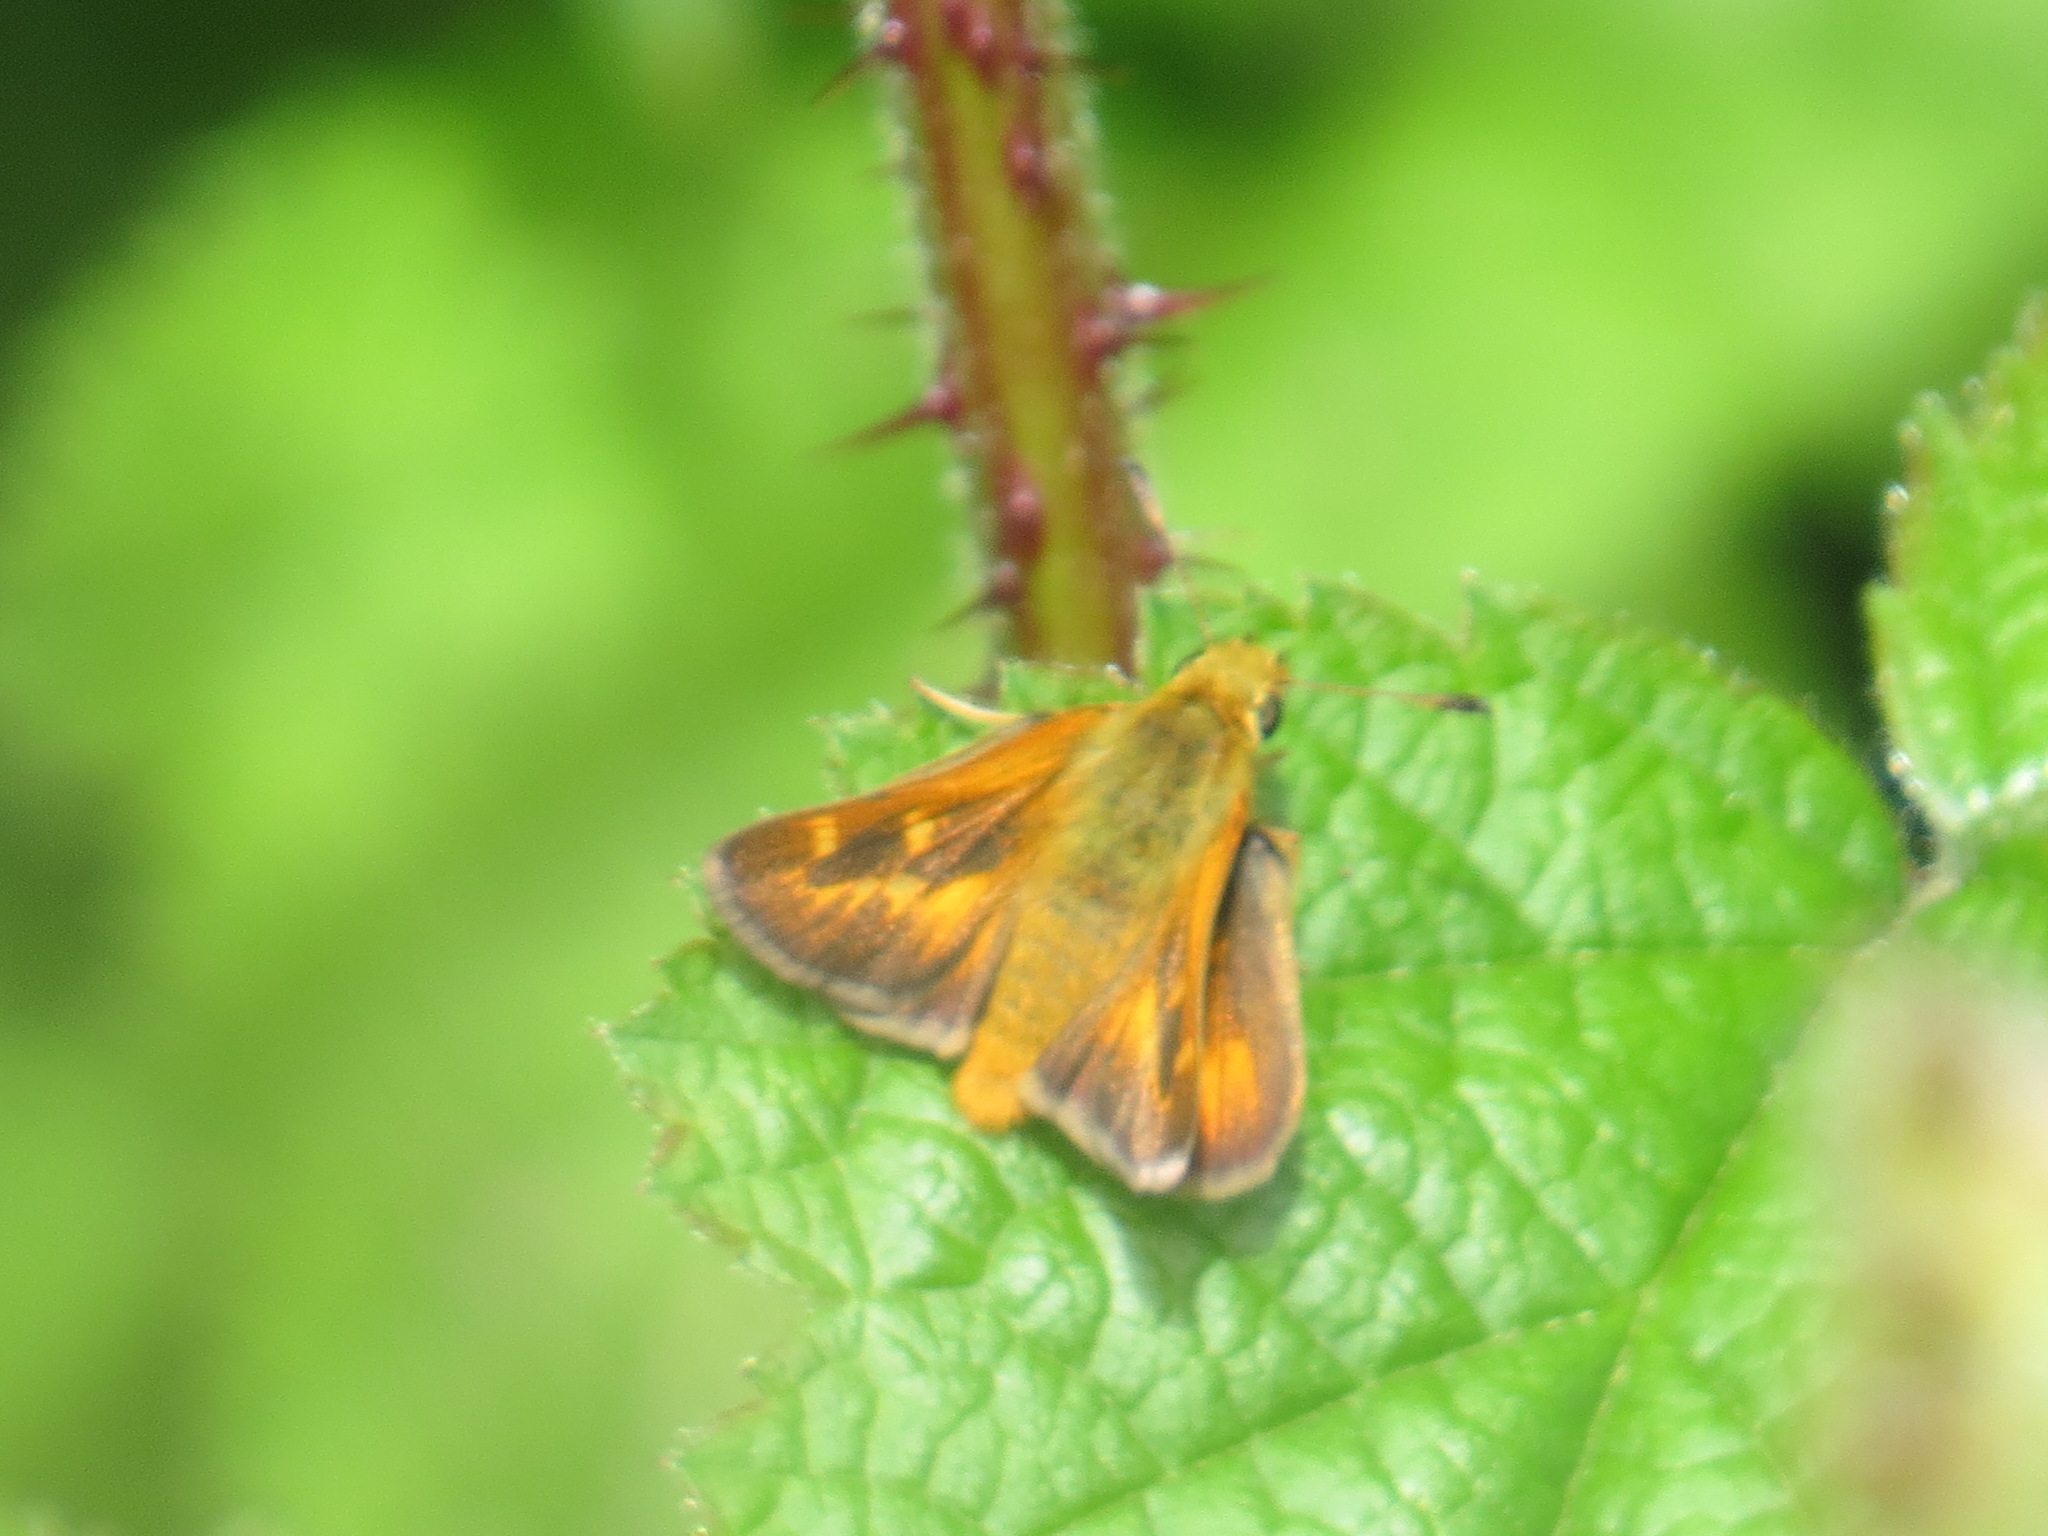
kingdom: Animalia
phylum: Arthropoda
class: Insecta
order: Lepidoptera
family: Hesperiidae
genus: Ochlodes
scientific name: Ochlodes agricola
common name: Rural skipper
